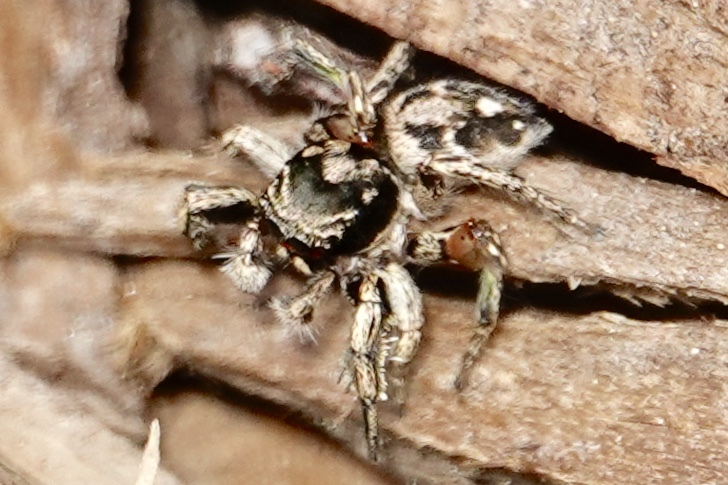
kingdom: Animalia
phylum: Arthropoda
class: Arachnida
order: Araneae
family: Salticidae
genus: Habronattus
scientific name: Habronattus coecatus
